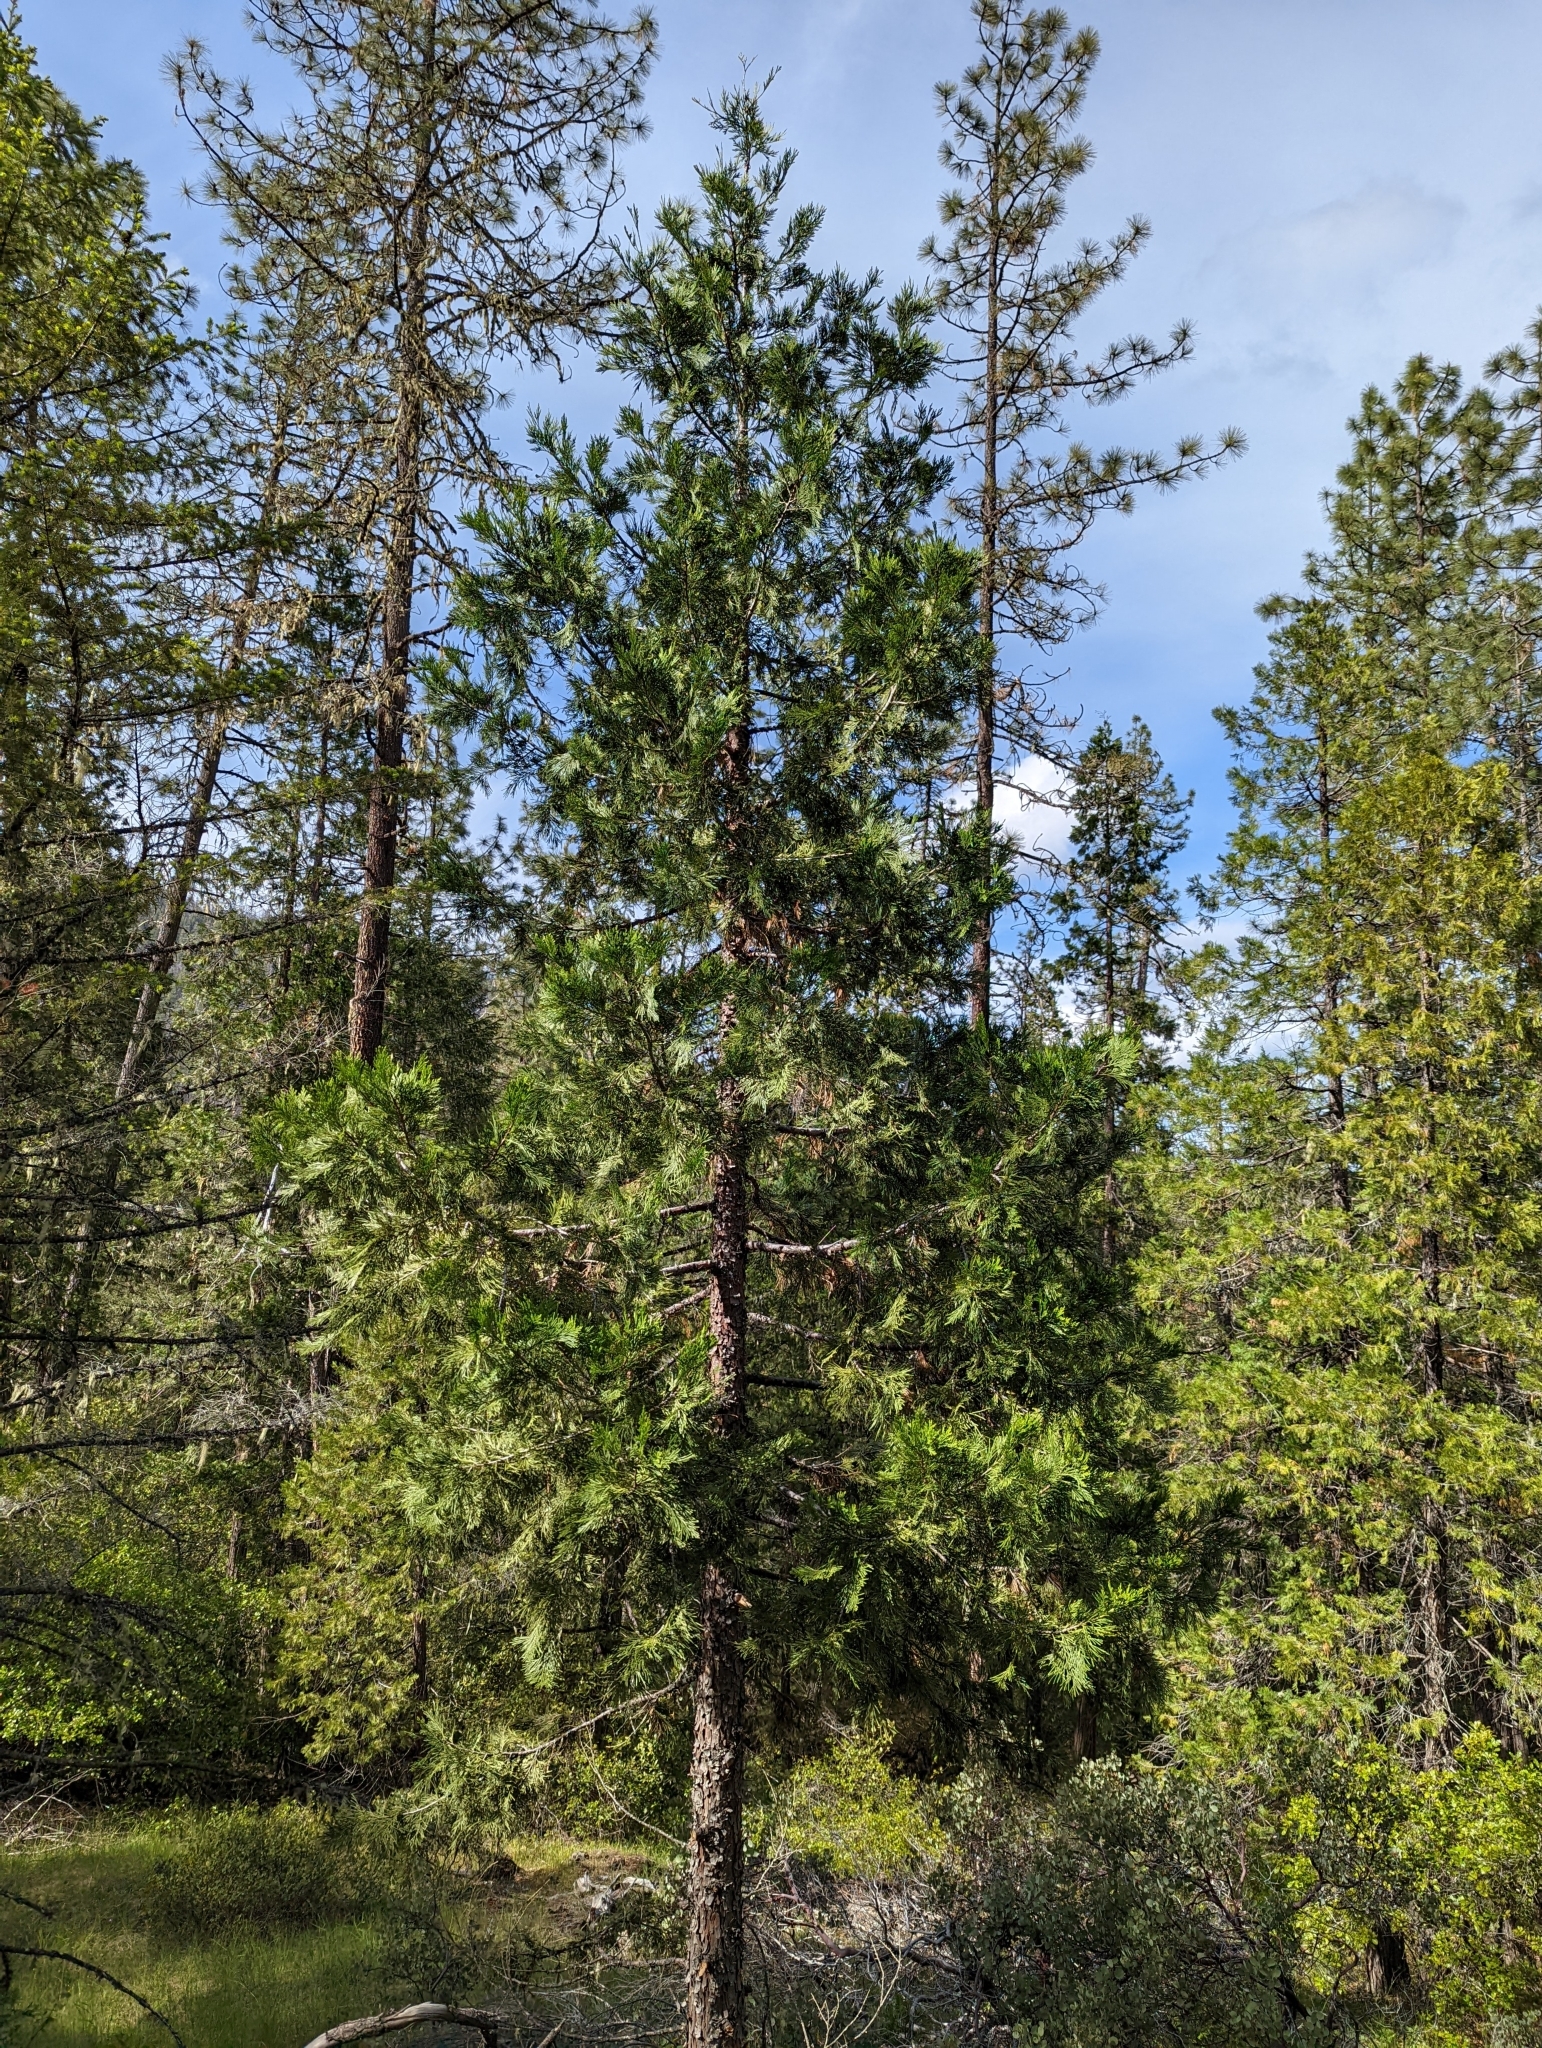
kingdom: Plantae
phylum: Tracheophyta
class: Pinopsida
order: Pinales
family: Cupressaceae
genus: Calocedrus
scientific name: Calocedrus decurrens
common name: Californian incense-cedar
